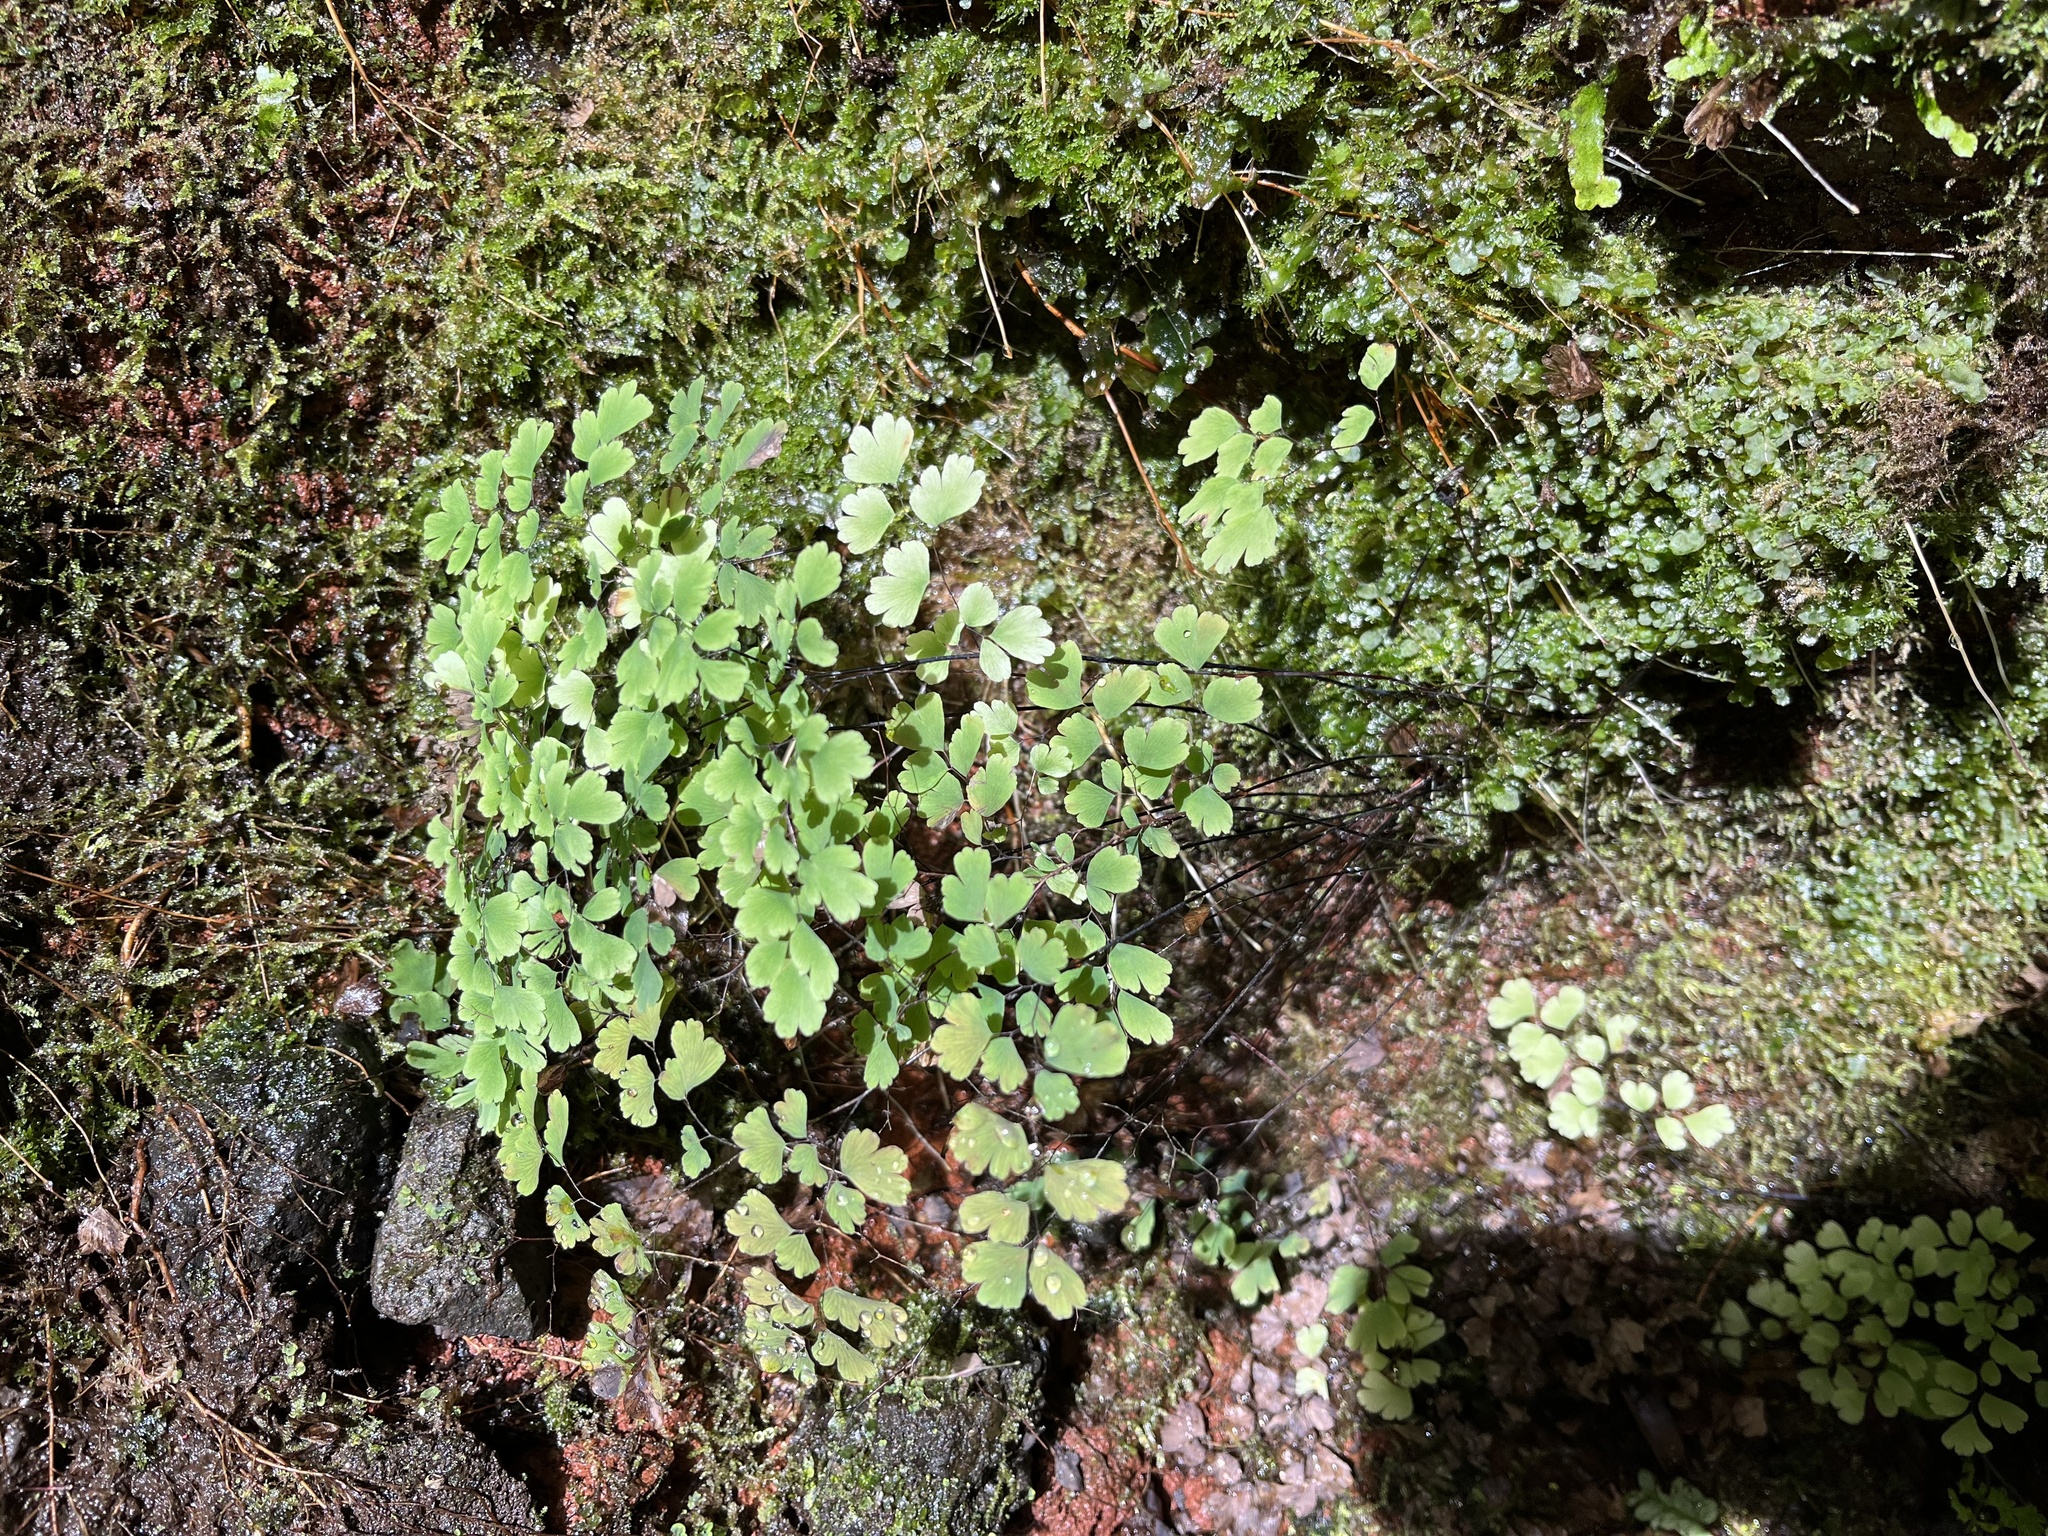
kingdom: Plantae
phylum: Tracheophyta
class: Polypodiopsida
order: Polypodiales
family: Pteridaceae
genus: Adiantum
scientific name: Adiantum raddianum
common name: Delta maidenhair fern
